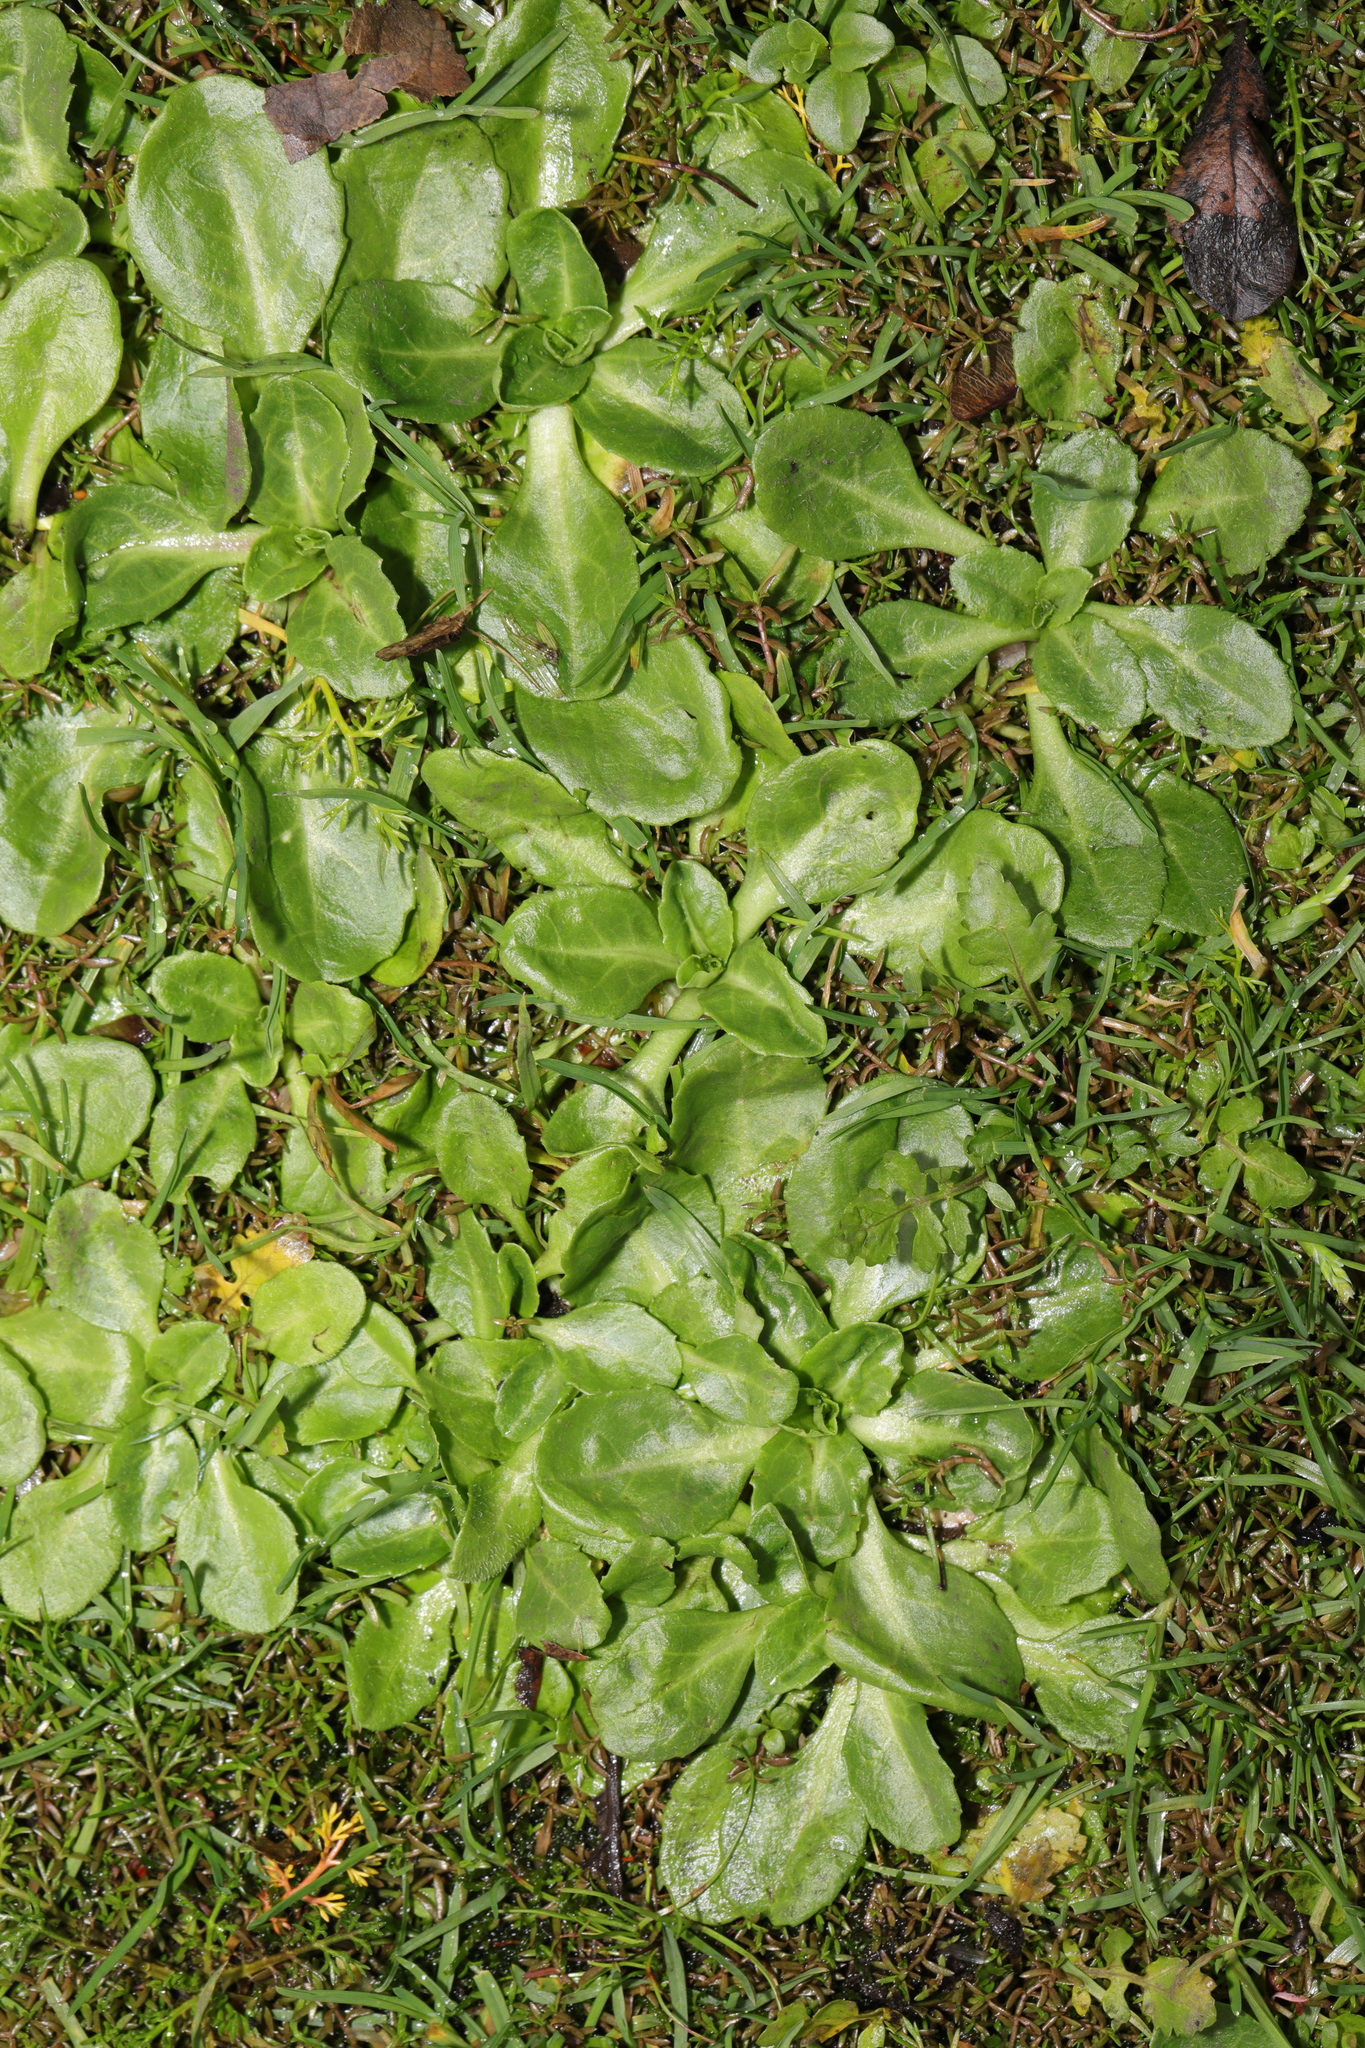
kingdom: Plantae
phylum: Tracheophyta
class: Magnoliopsida
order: Asterales
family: Asteraceae
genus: Bellis
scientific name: Bellis perennis
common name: Lawndaisy
